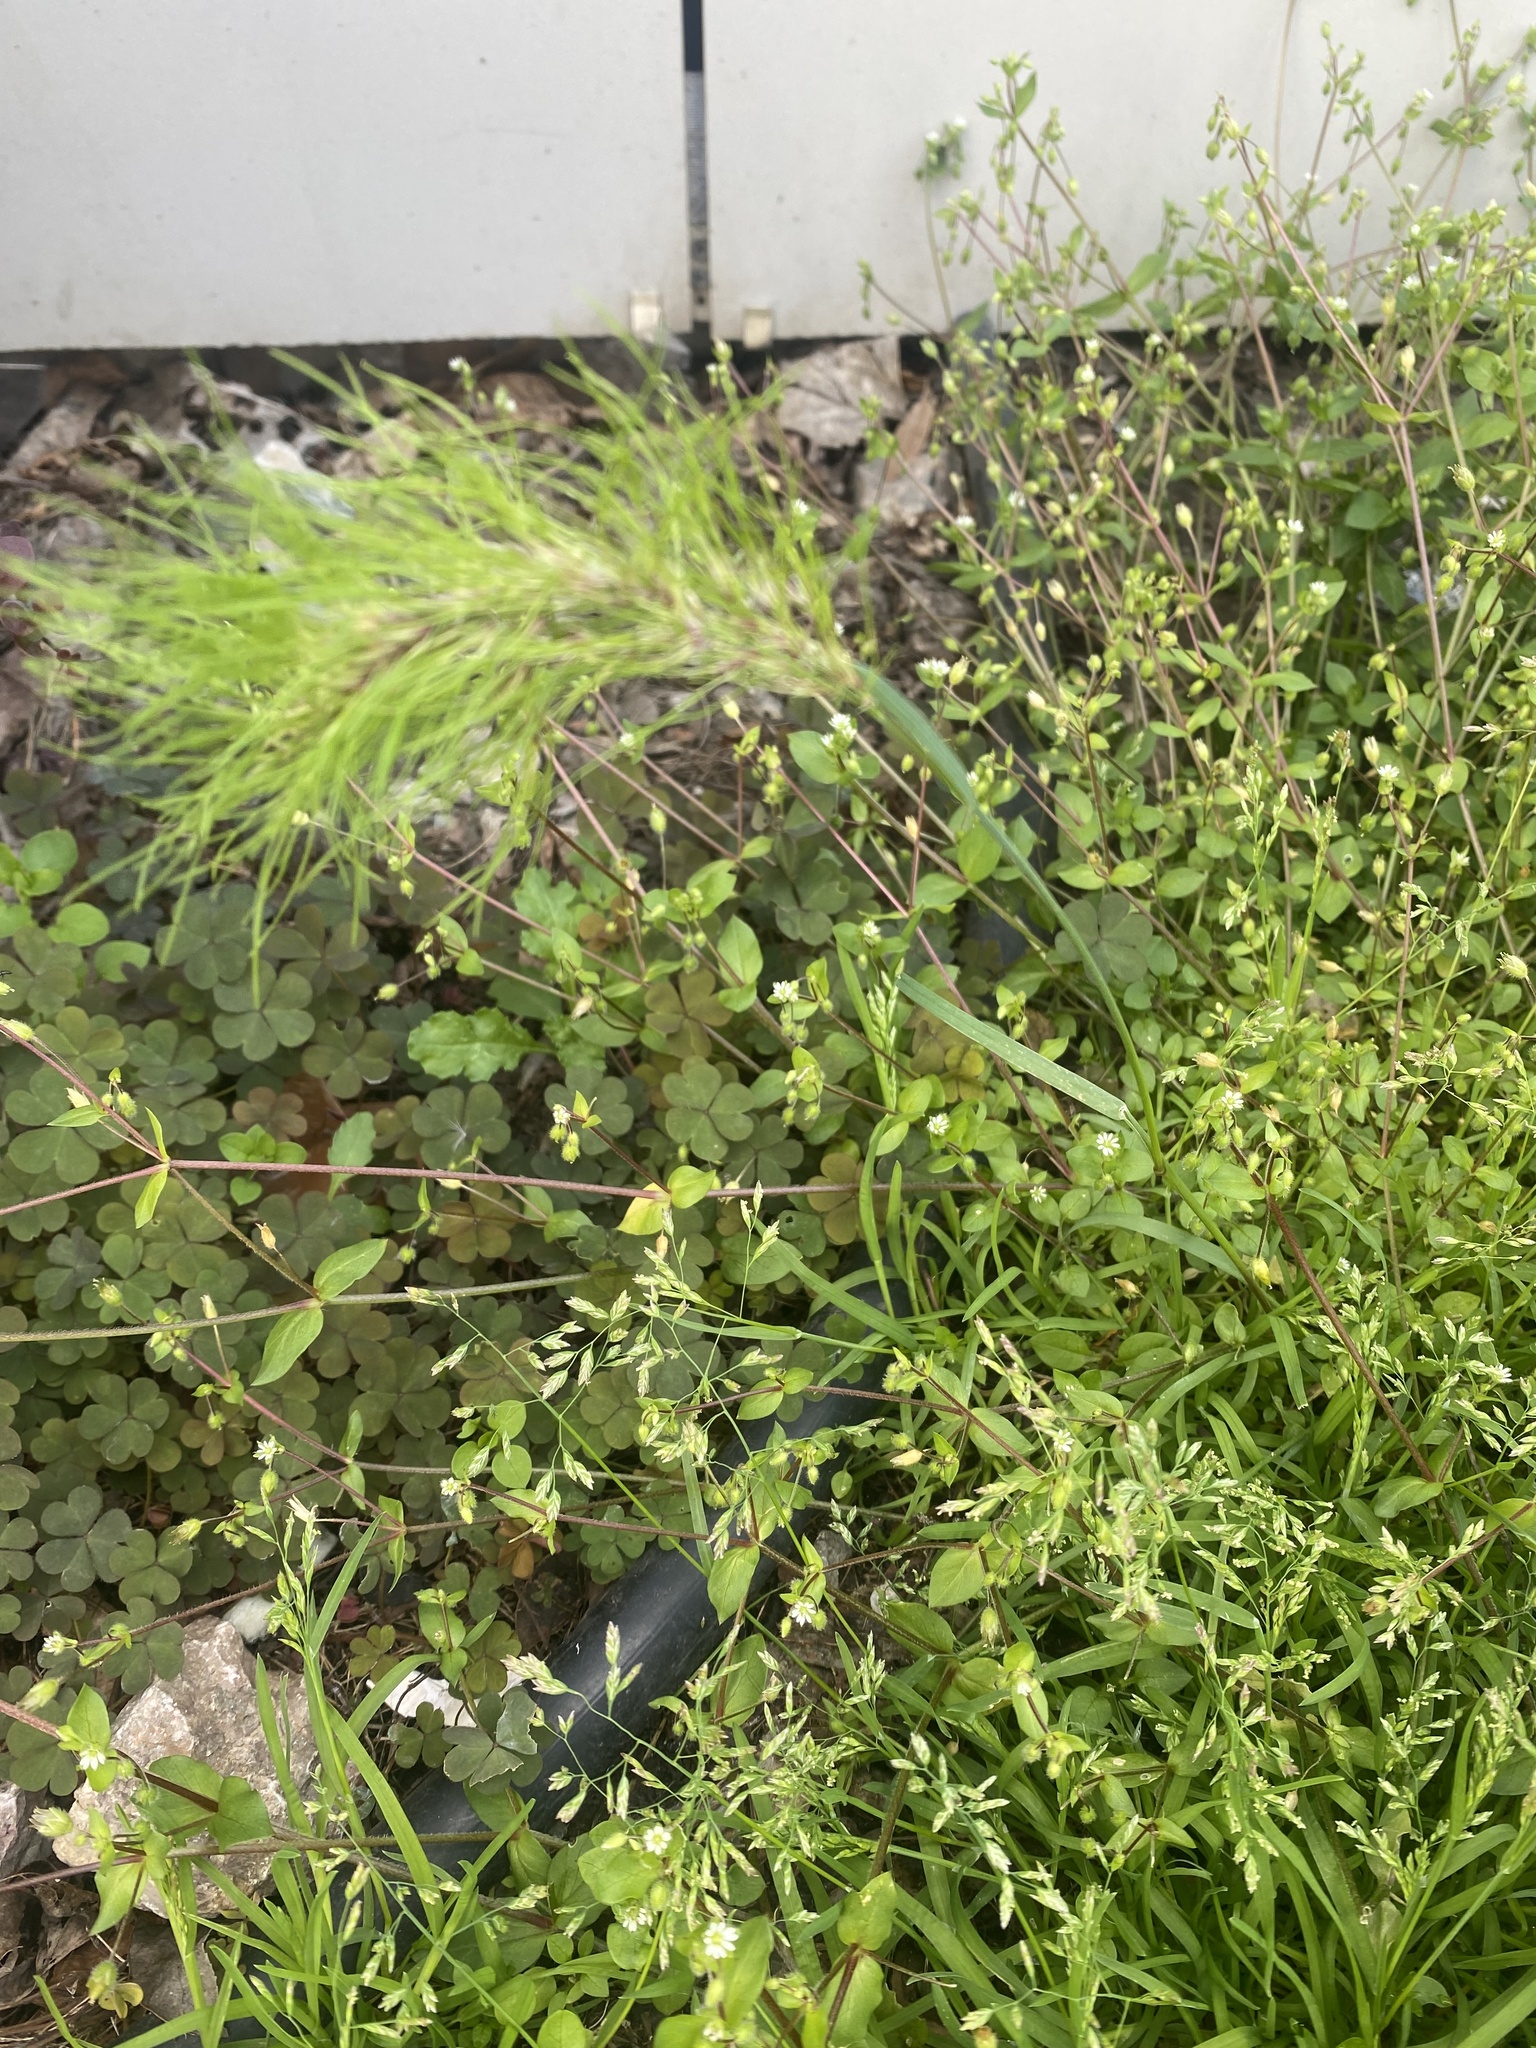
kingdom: Plantae
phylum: Tracheophyta
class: Liliopsida
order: Poales
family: Poaceae
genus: Poa
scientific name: Poa bulbosa
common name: Bulbous bluegrass
